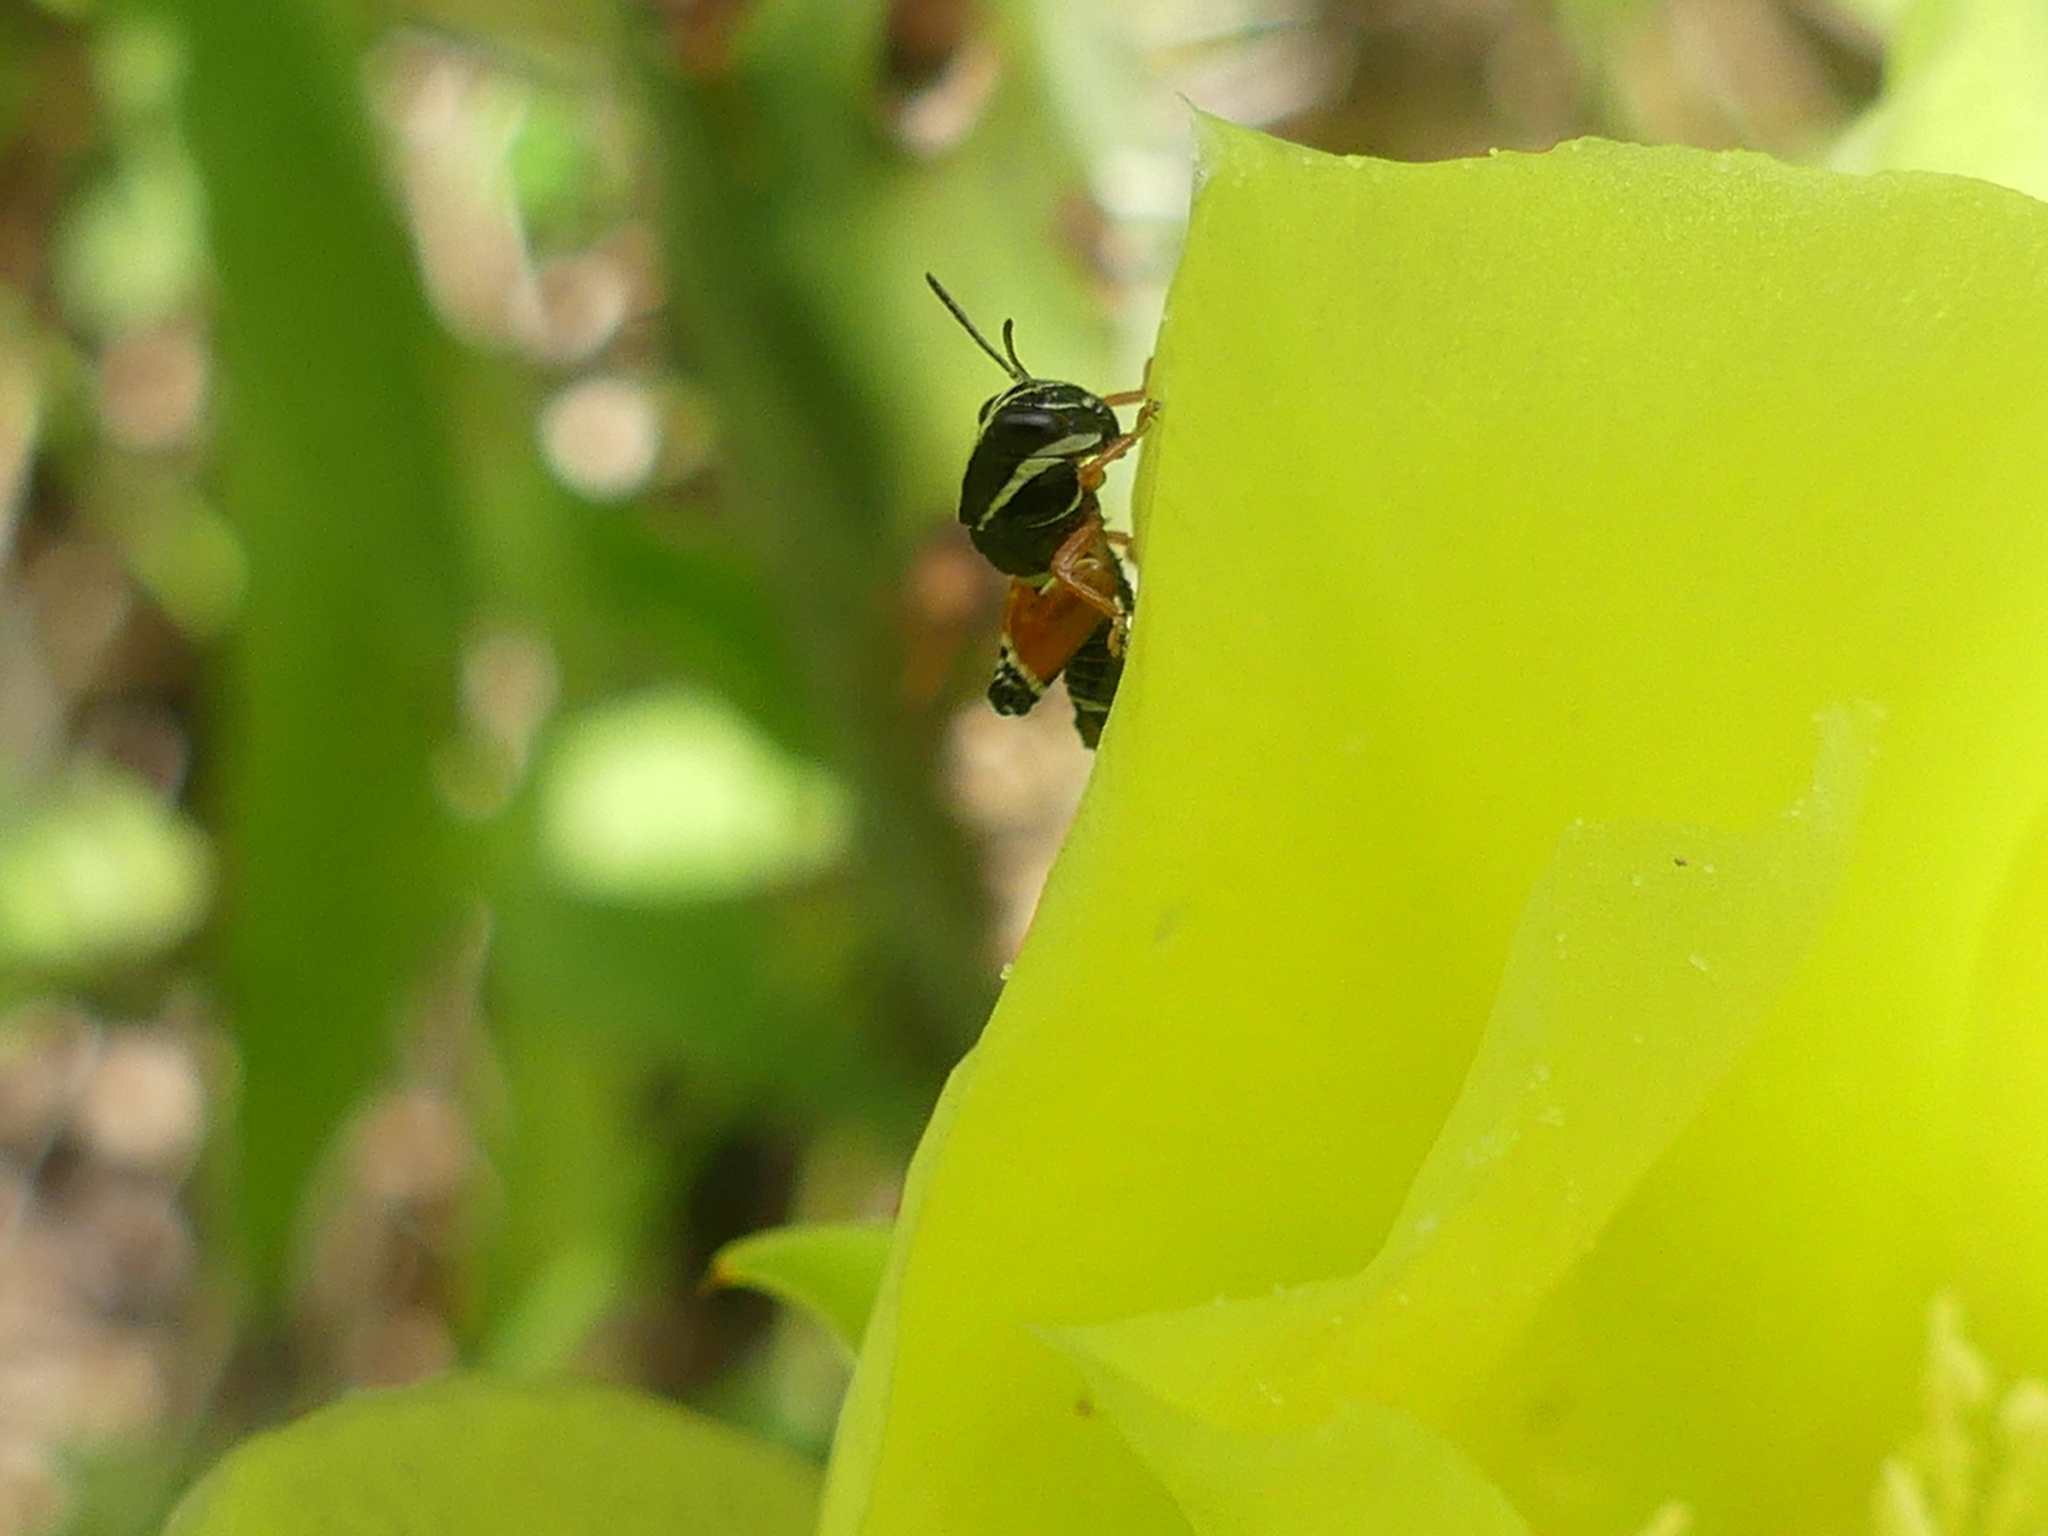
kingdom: Animalia
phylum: Arthropoda
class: Insecta
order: Orthoptera
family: Acrididae
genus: Aidemona
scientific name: Aidemona azteca
